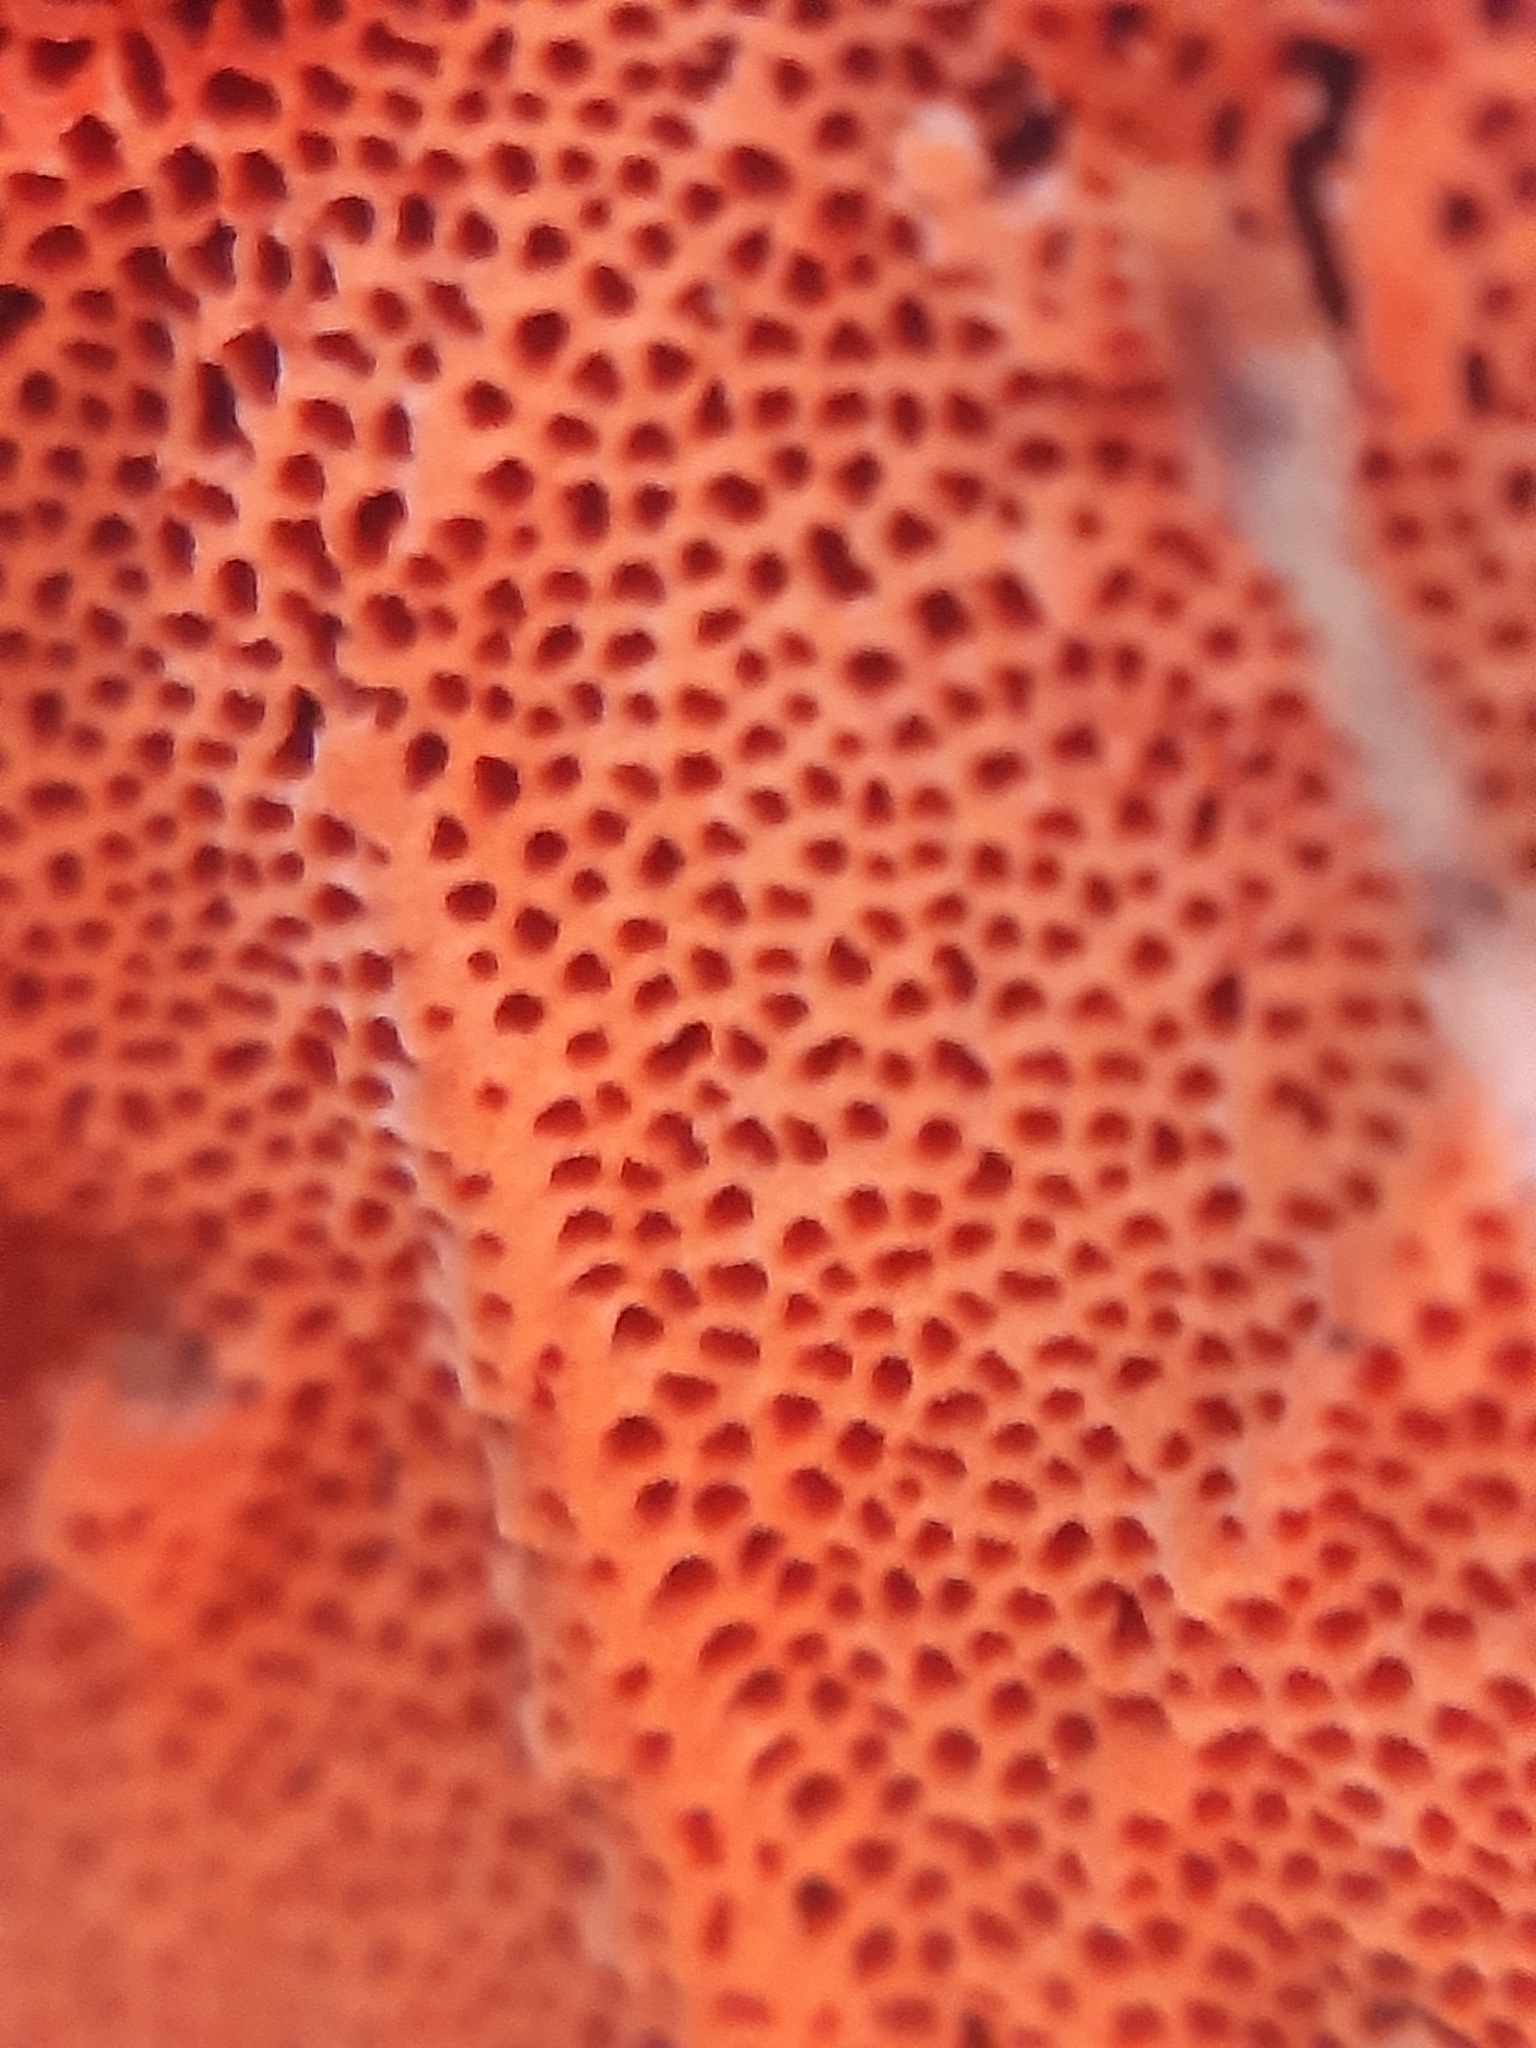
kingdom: Fungi
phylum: Basidiomycota
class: Agaricomycetes
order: Polyporales
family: Polyporaceae
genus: Trametes
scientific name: Trametes cinnabarina
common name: Northern cinnabar polypore
